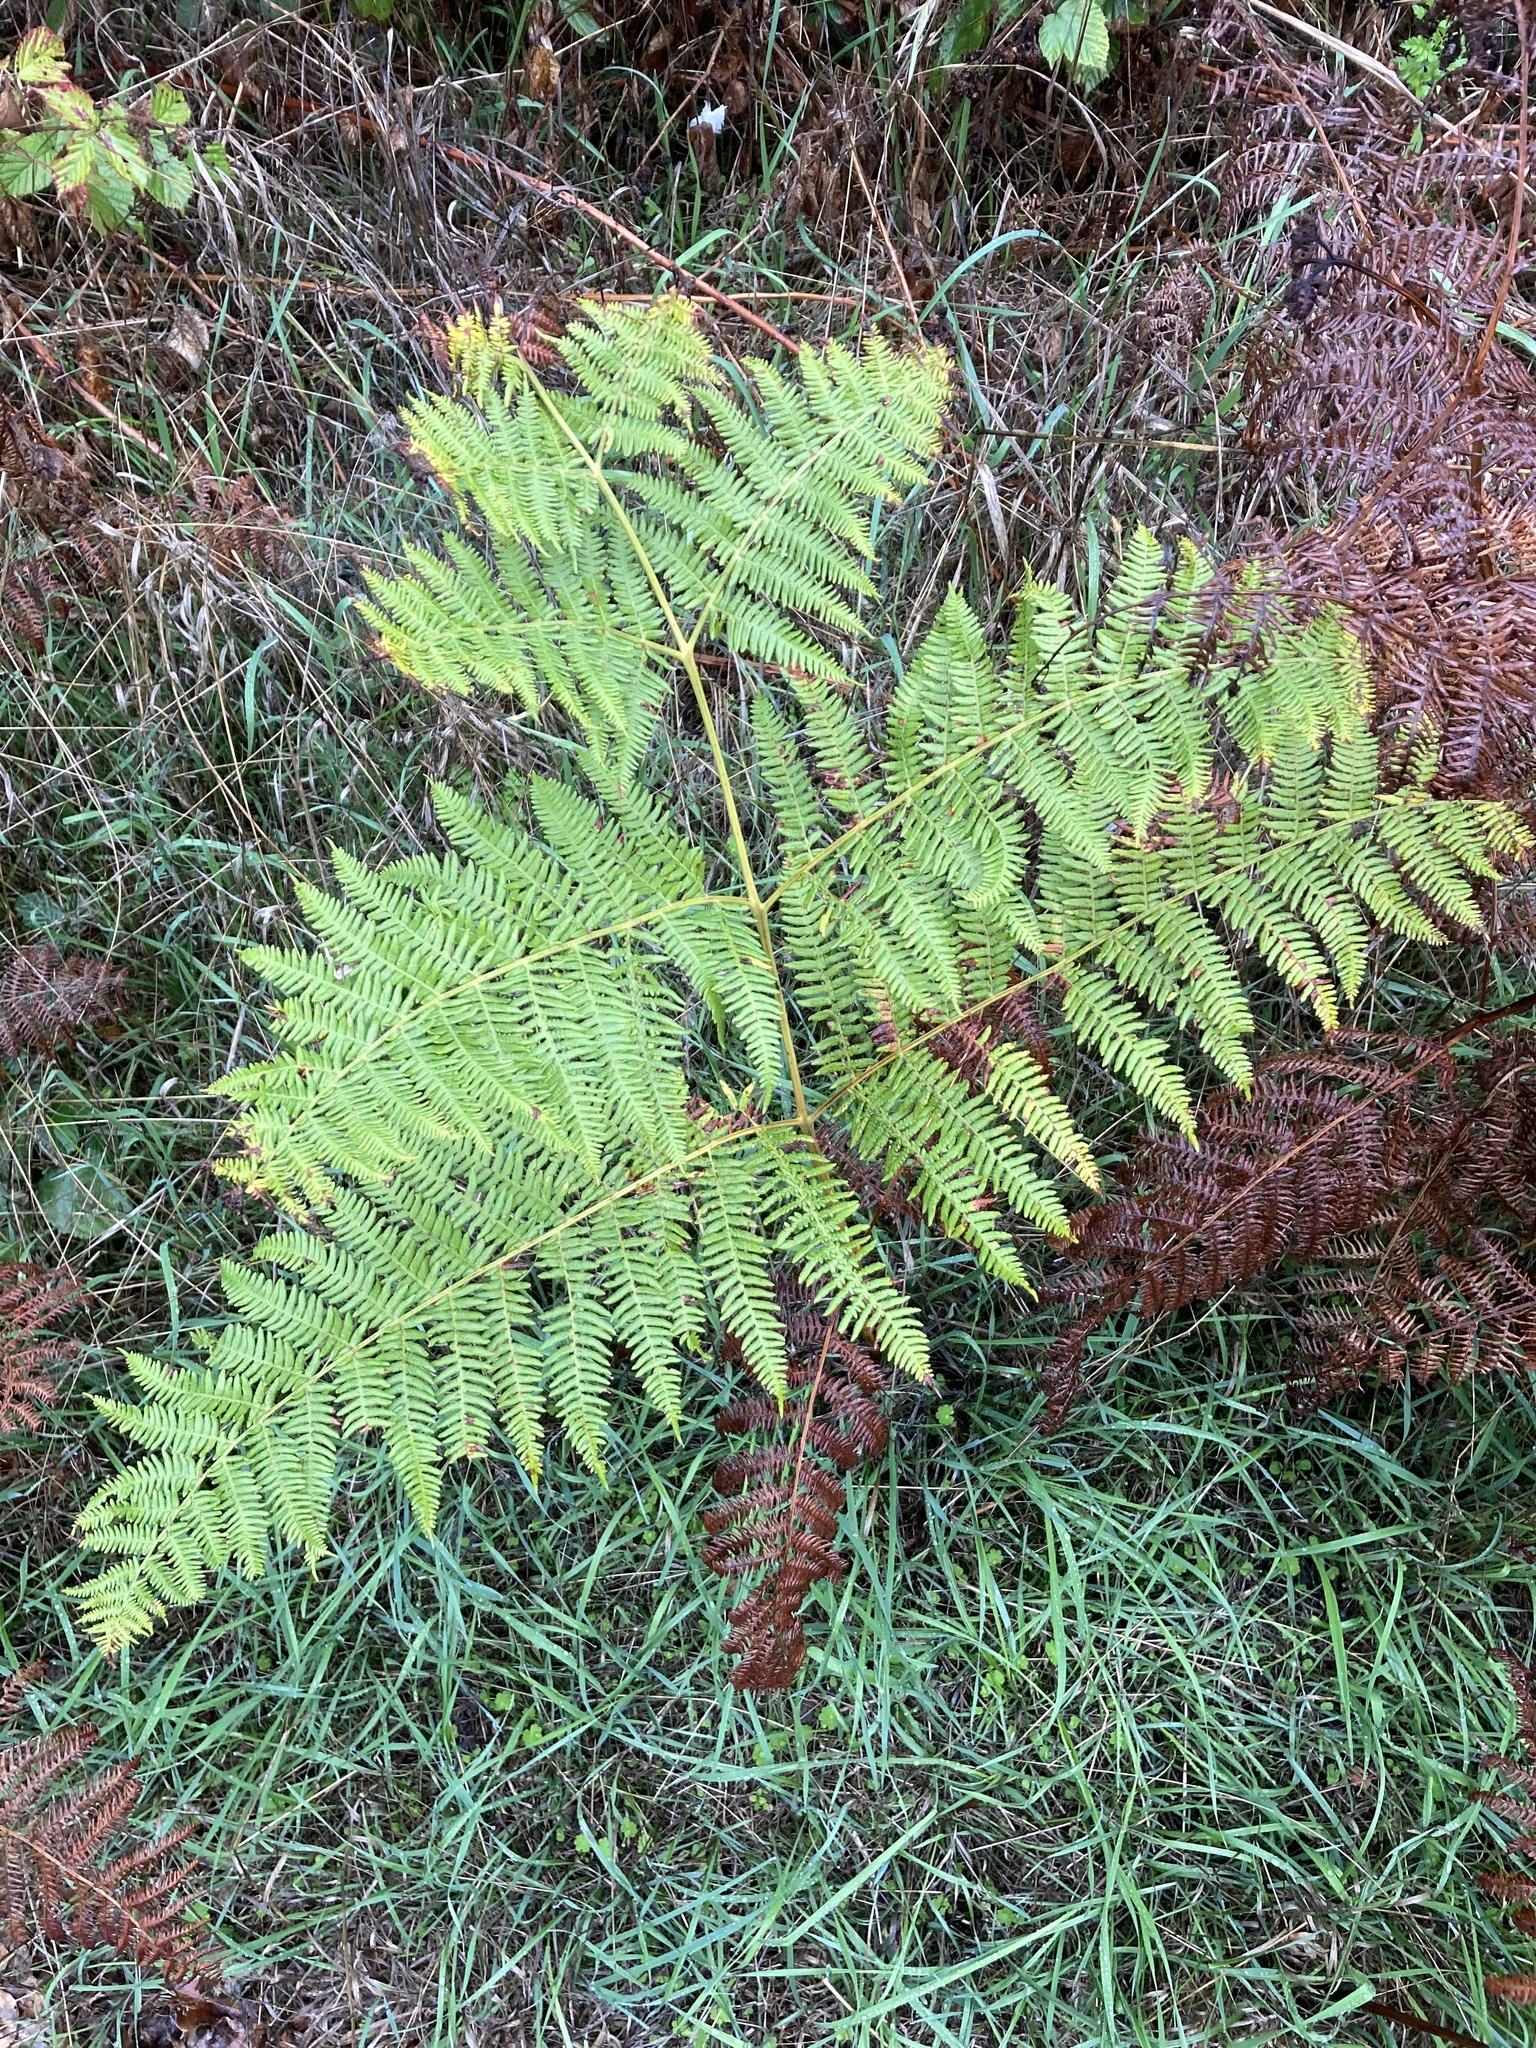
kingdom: Plantae
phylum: Tracheophyta
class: Polypodiopsida
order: Polypodiales
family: Dennstaedtiaceae
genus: Pteridium
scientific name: Pteridium aquilinum
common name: Bracken
